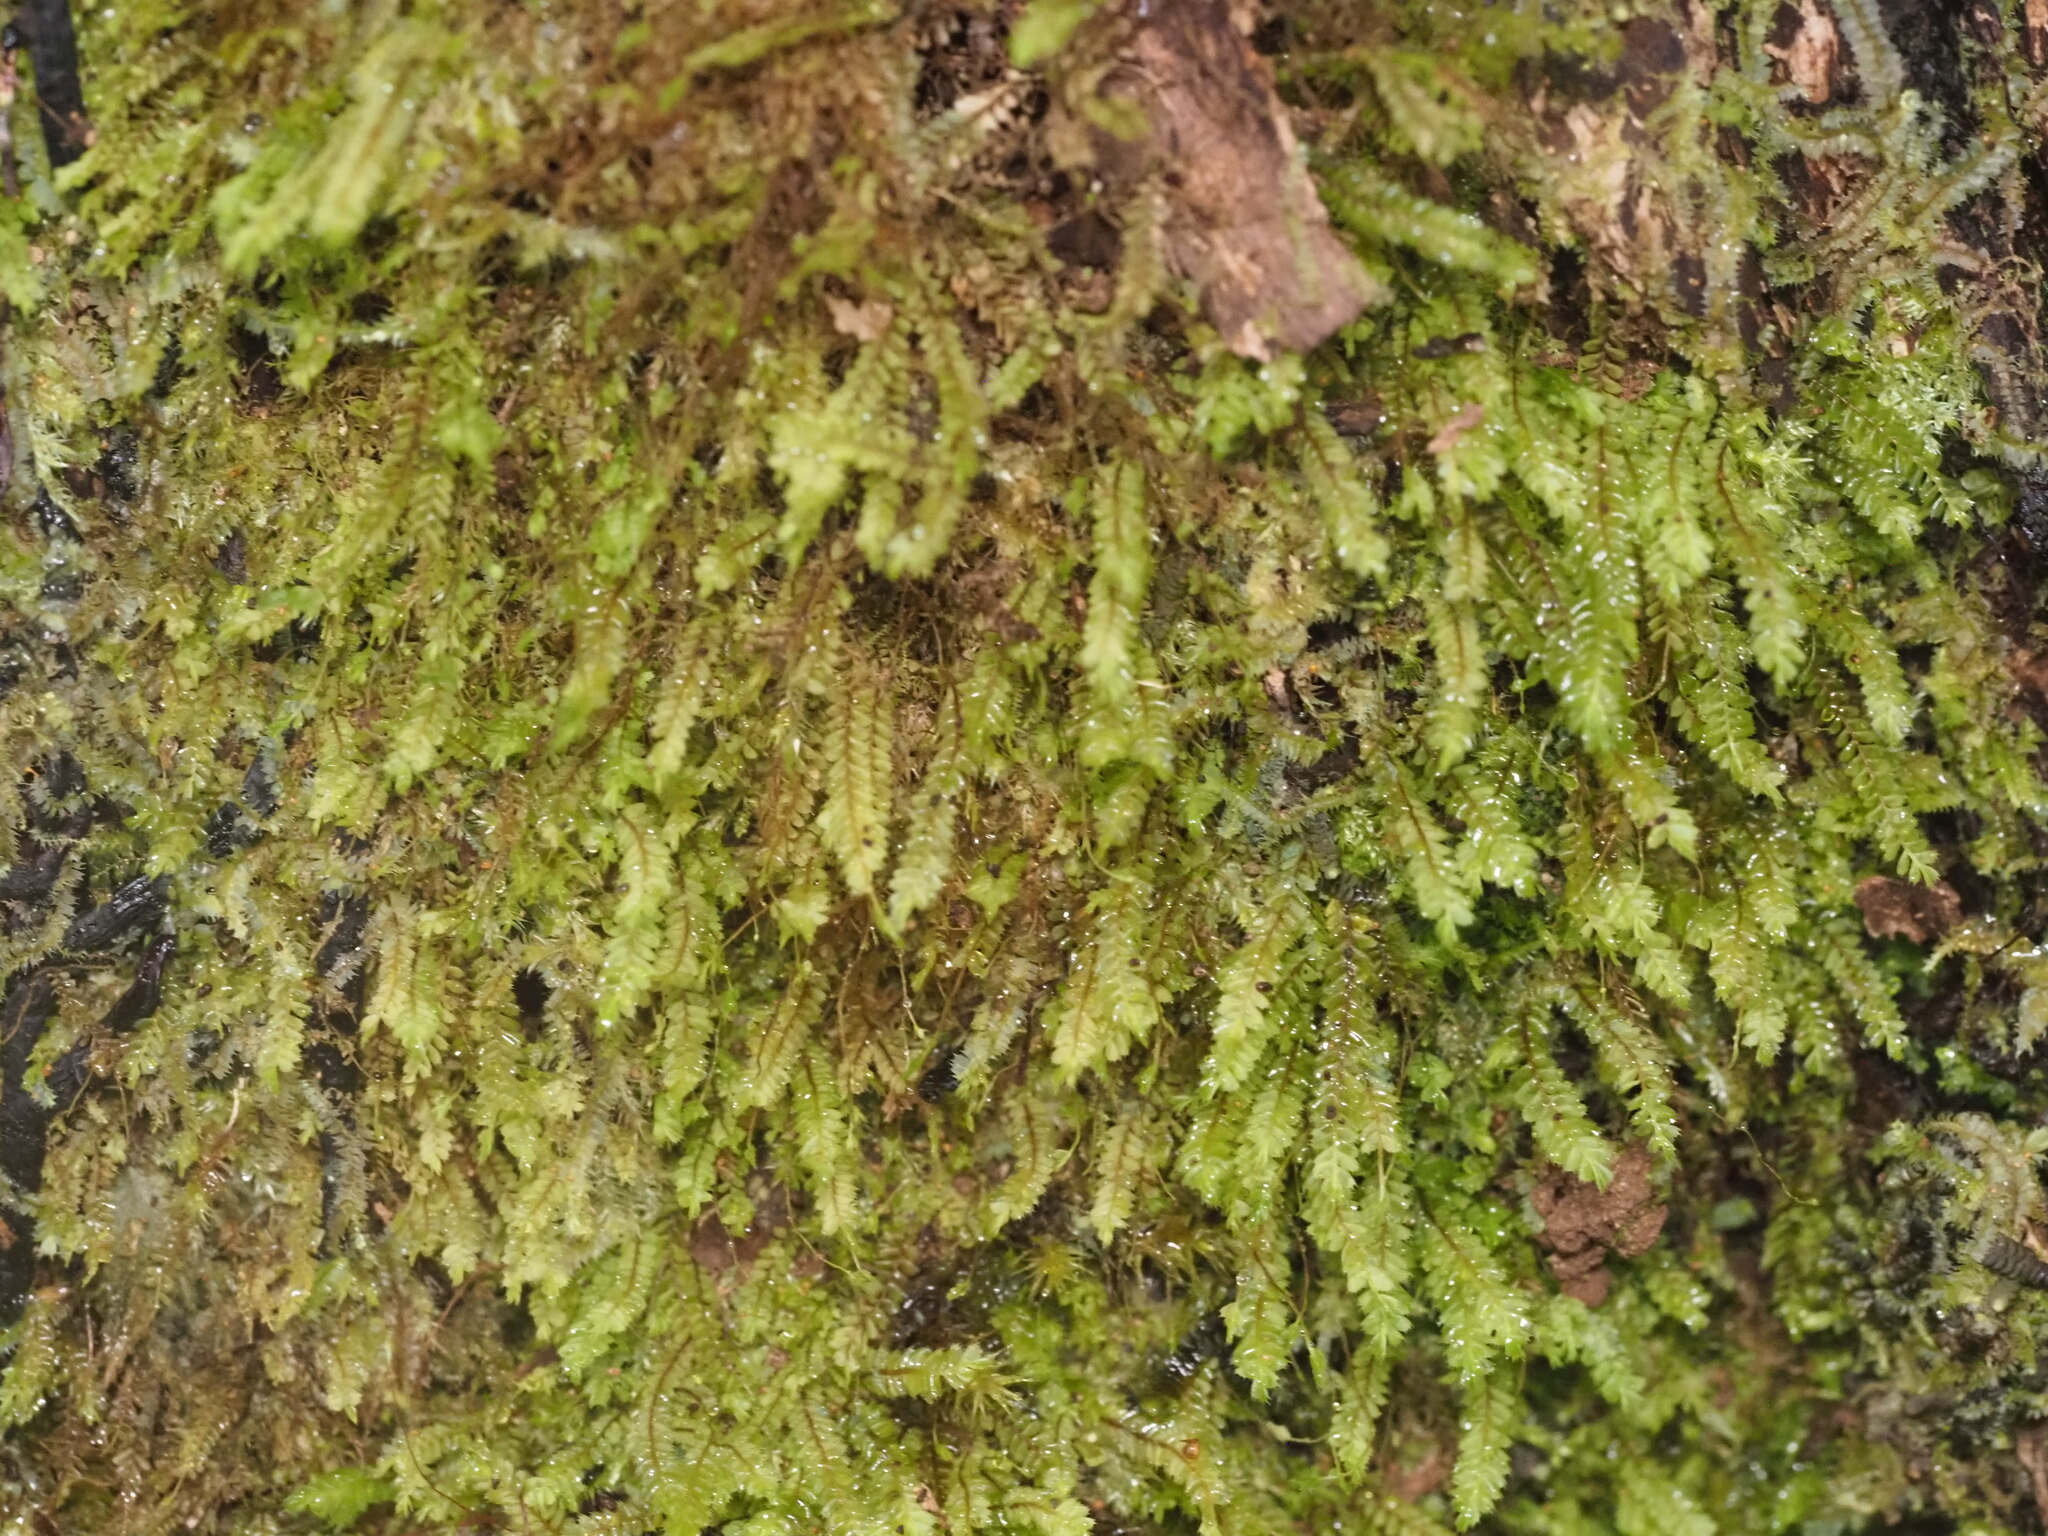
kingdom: Plantae
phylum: Marchantiophyta
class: Jungermanniopsida
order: Jungermanniales
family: Plagiochilaceae
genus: Plagiochila
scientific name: Plagiochila gaudichaudii
